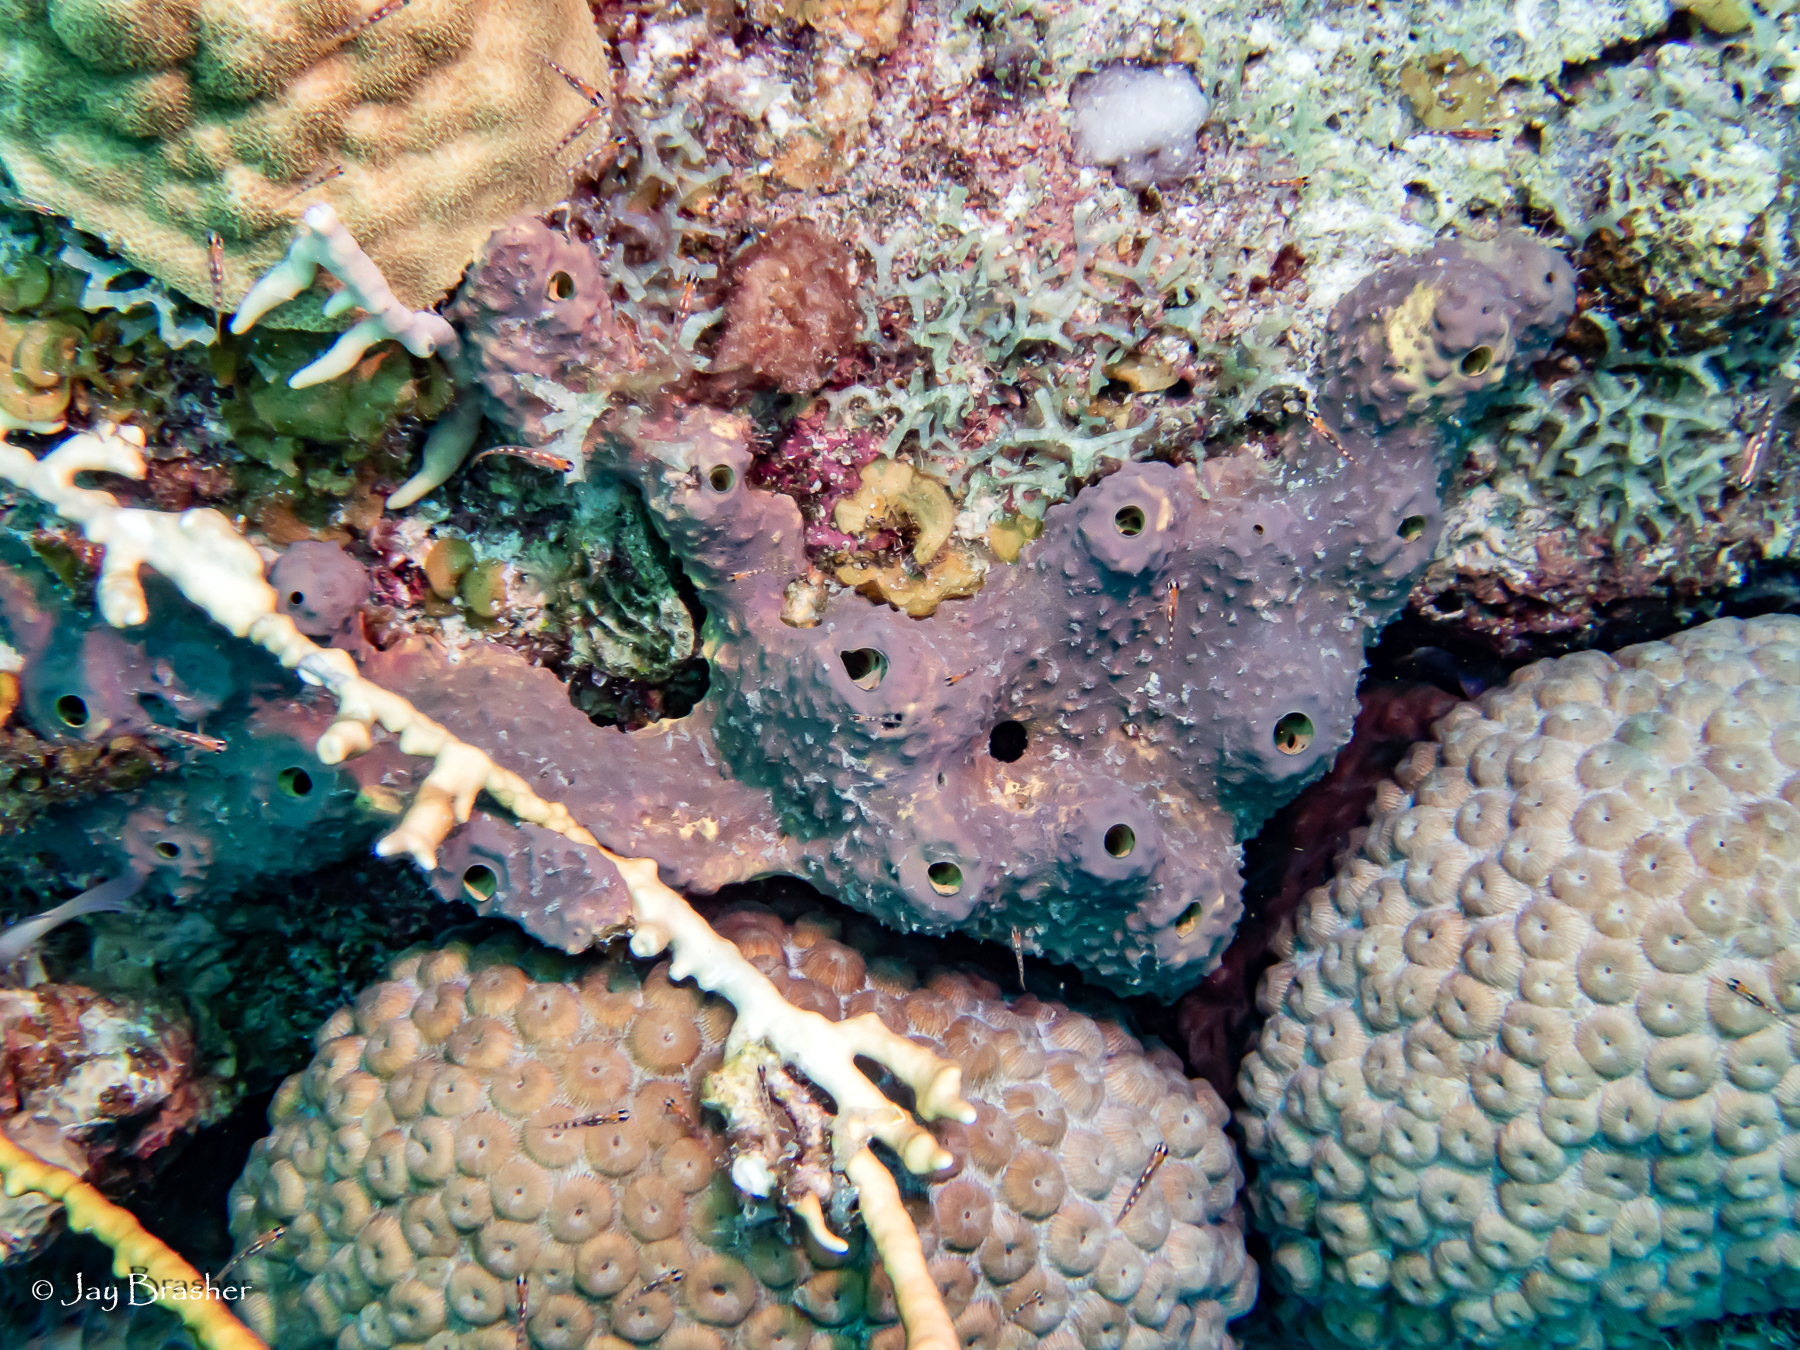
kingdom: Animalia
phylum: Porifera
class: Demospongiae
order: Verongiida
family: Aplysinidae
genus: Aiolochroia
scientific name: Aiolochroia crassa
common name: Branching tube sponge
